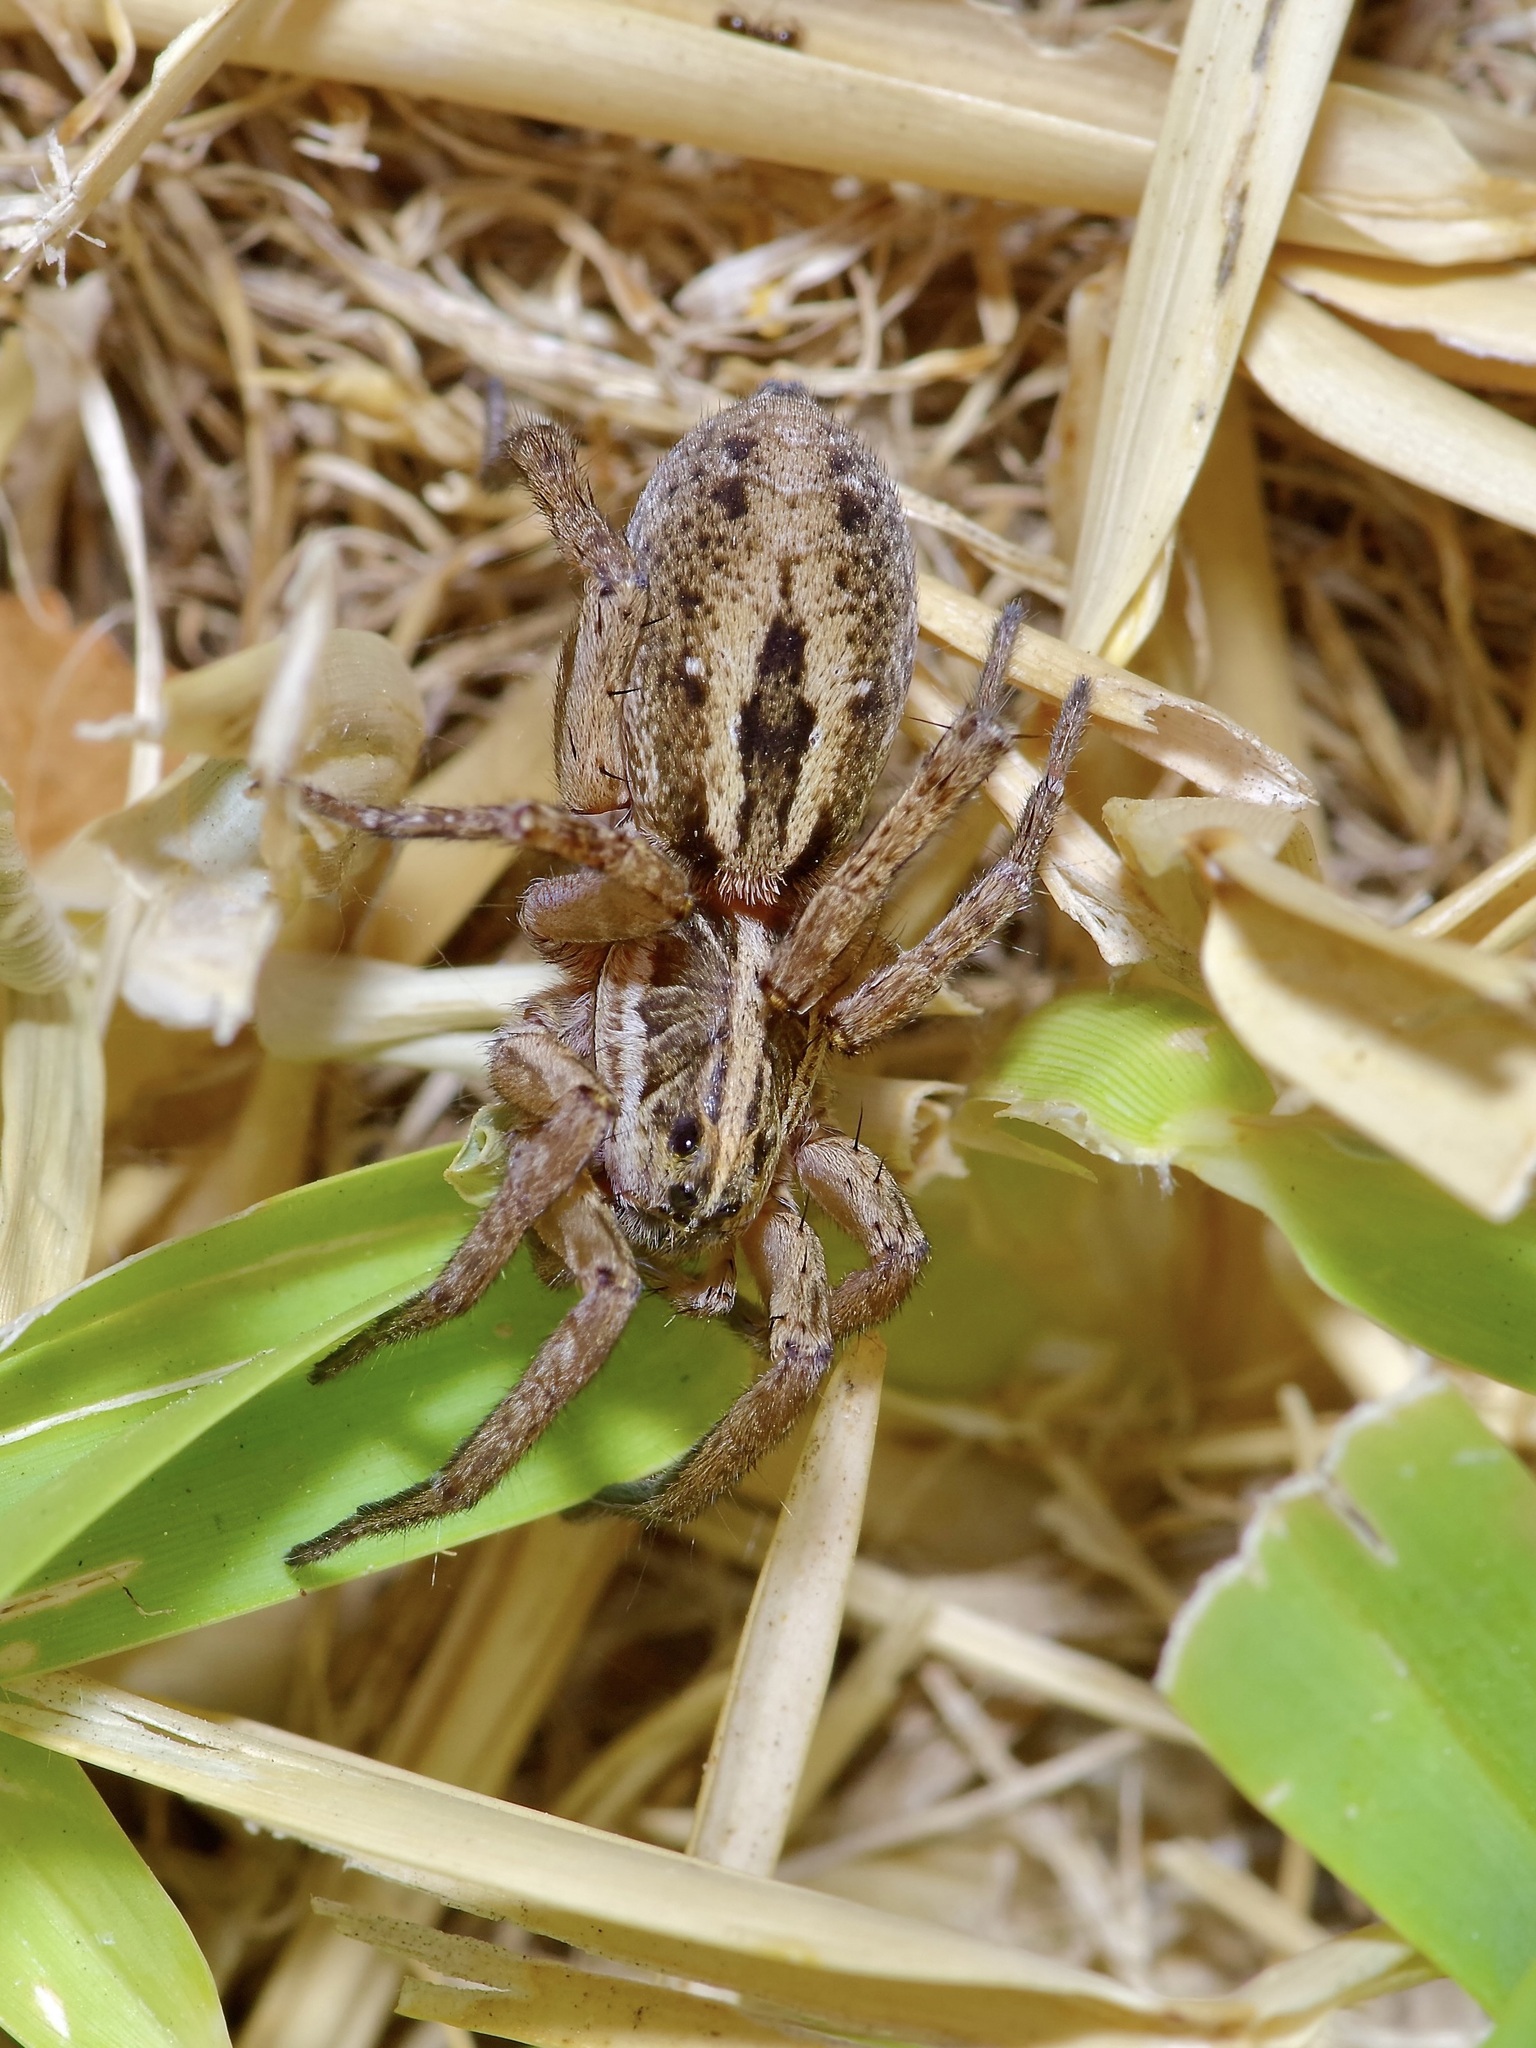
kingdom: Animalia
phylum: Arthropoda
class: Arachnida
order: Araneae
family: Lycosidae
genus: Tigrosa
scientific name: Tigrosa annexa
